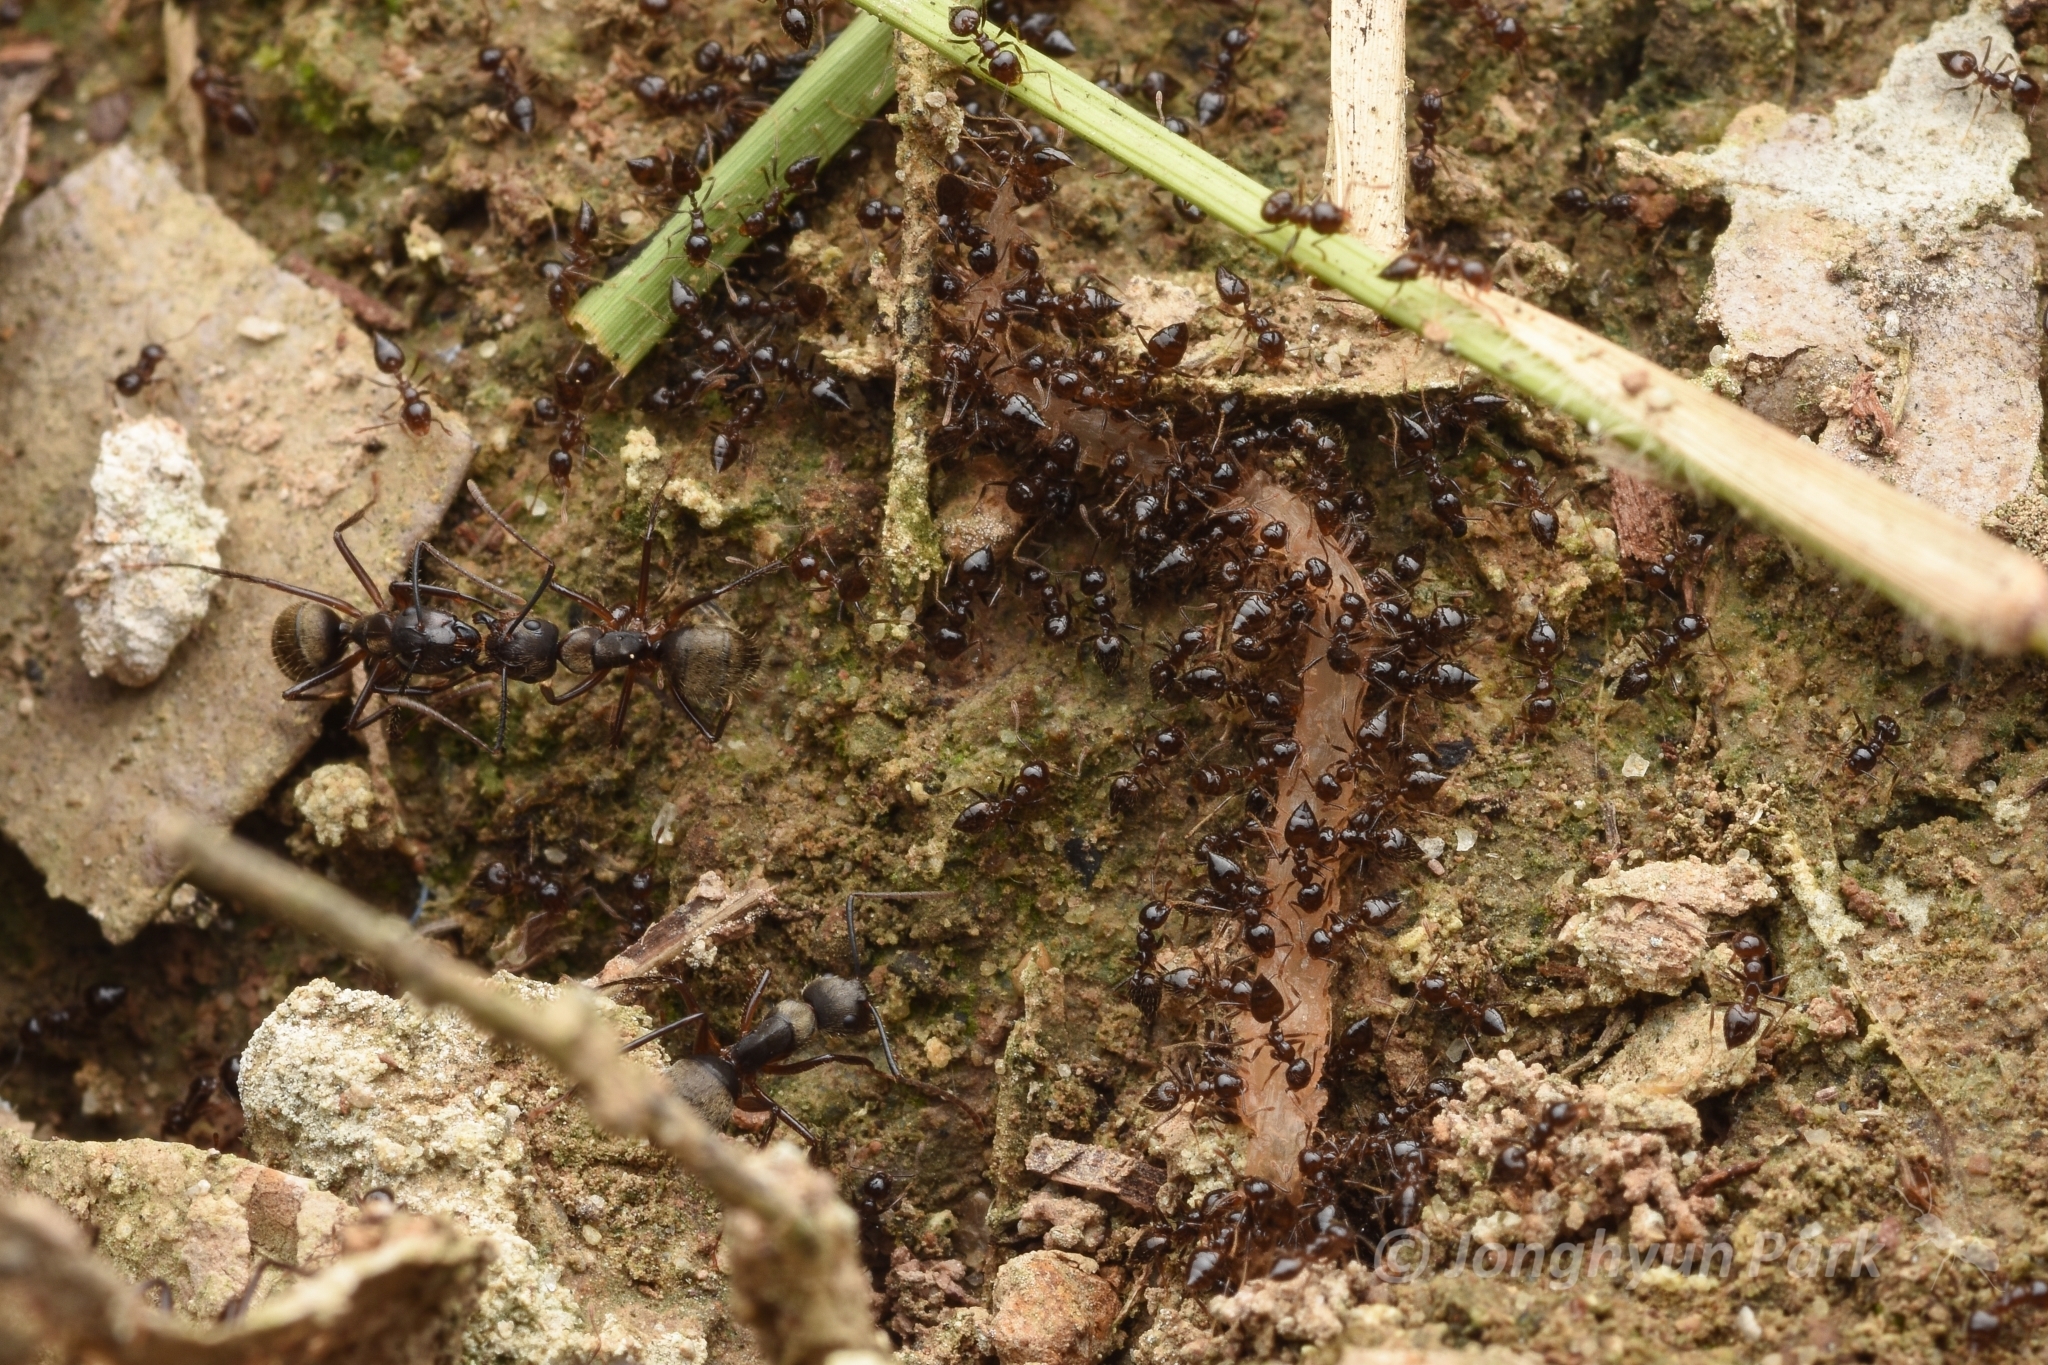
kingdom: Animalia
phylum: Arthropoda
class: Insecta
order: Hymenoptera
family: Formicidae
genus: Crematogaster
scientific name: Crematogaster levior
